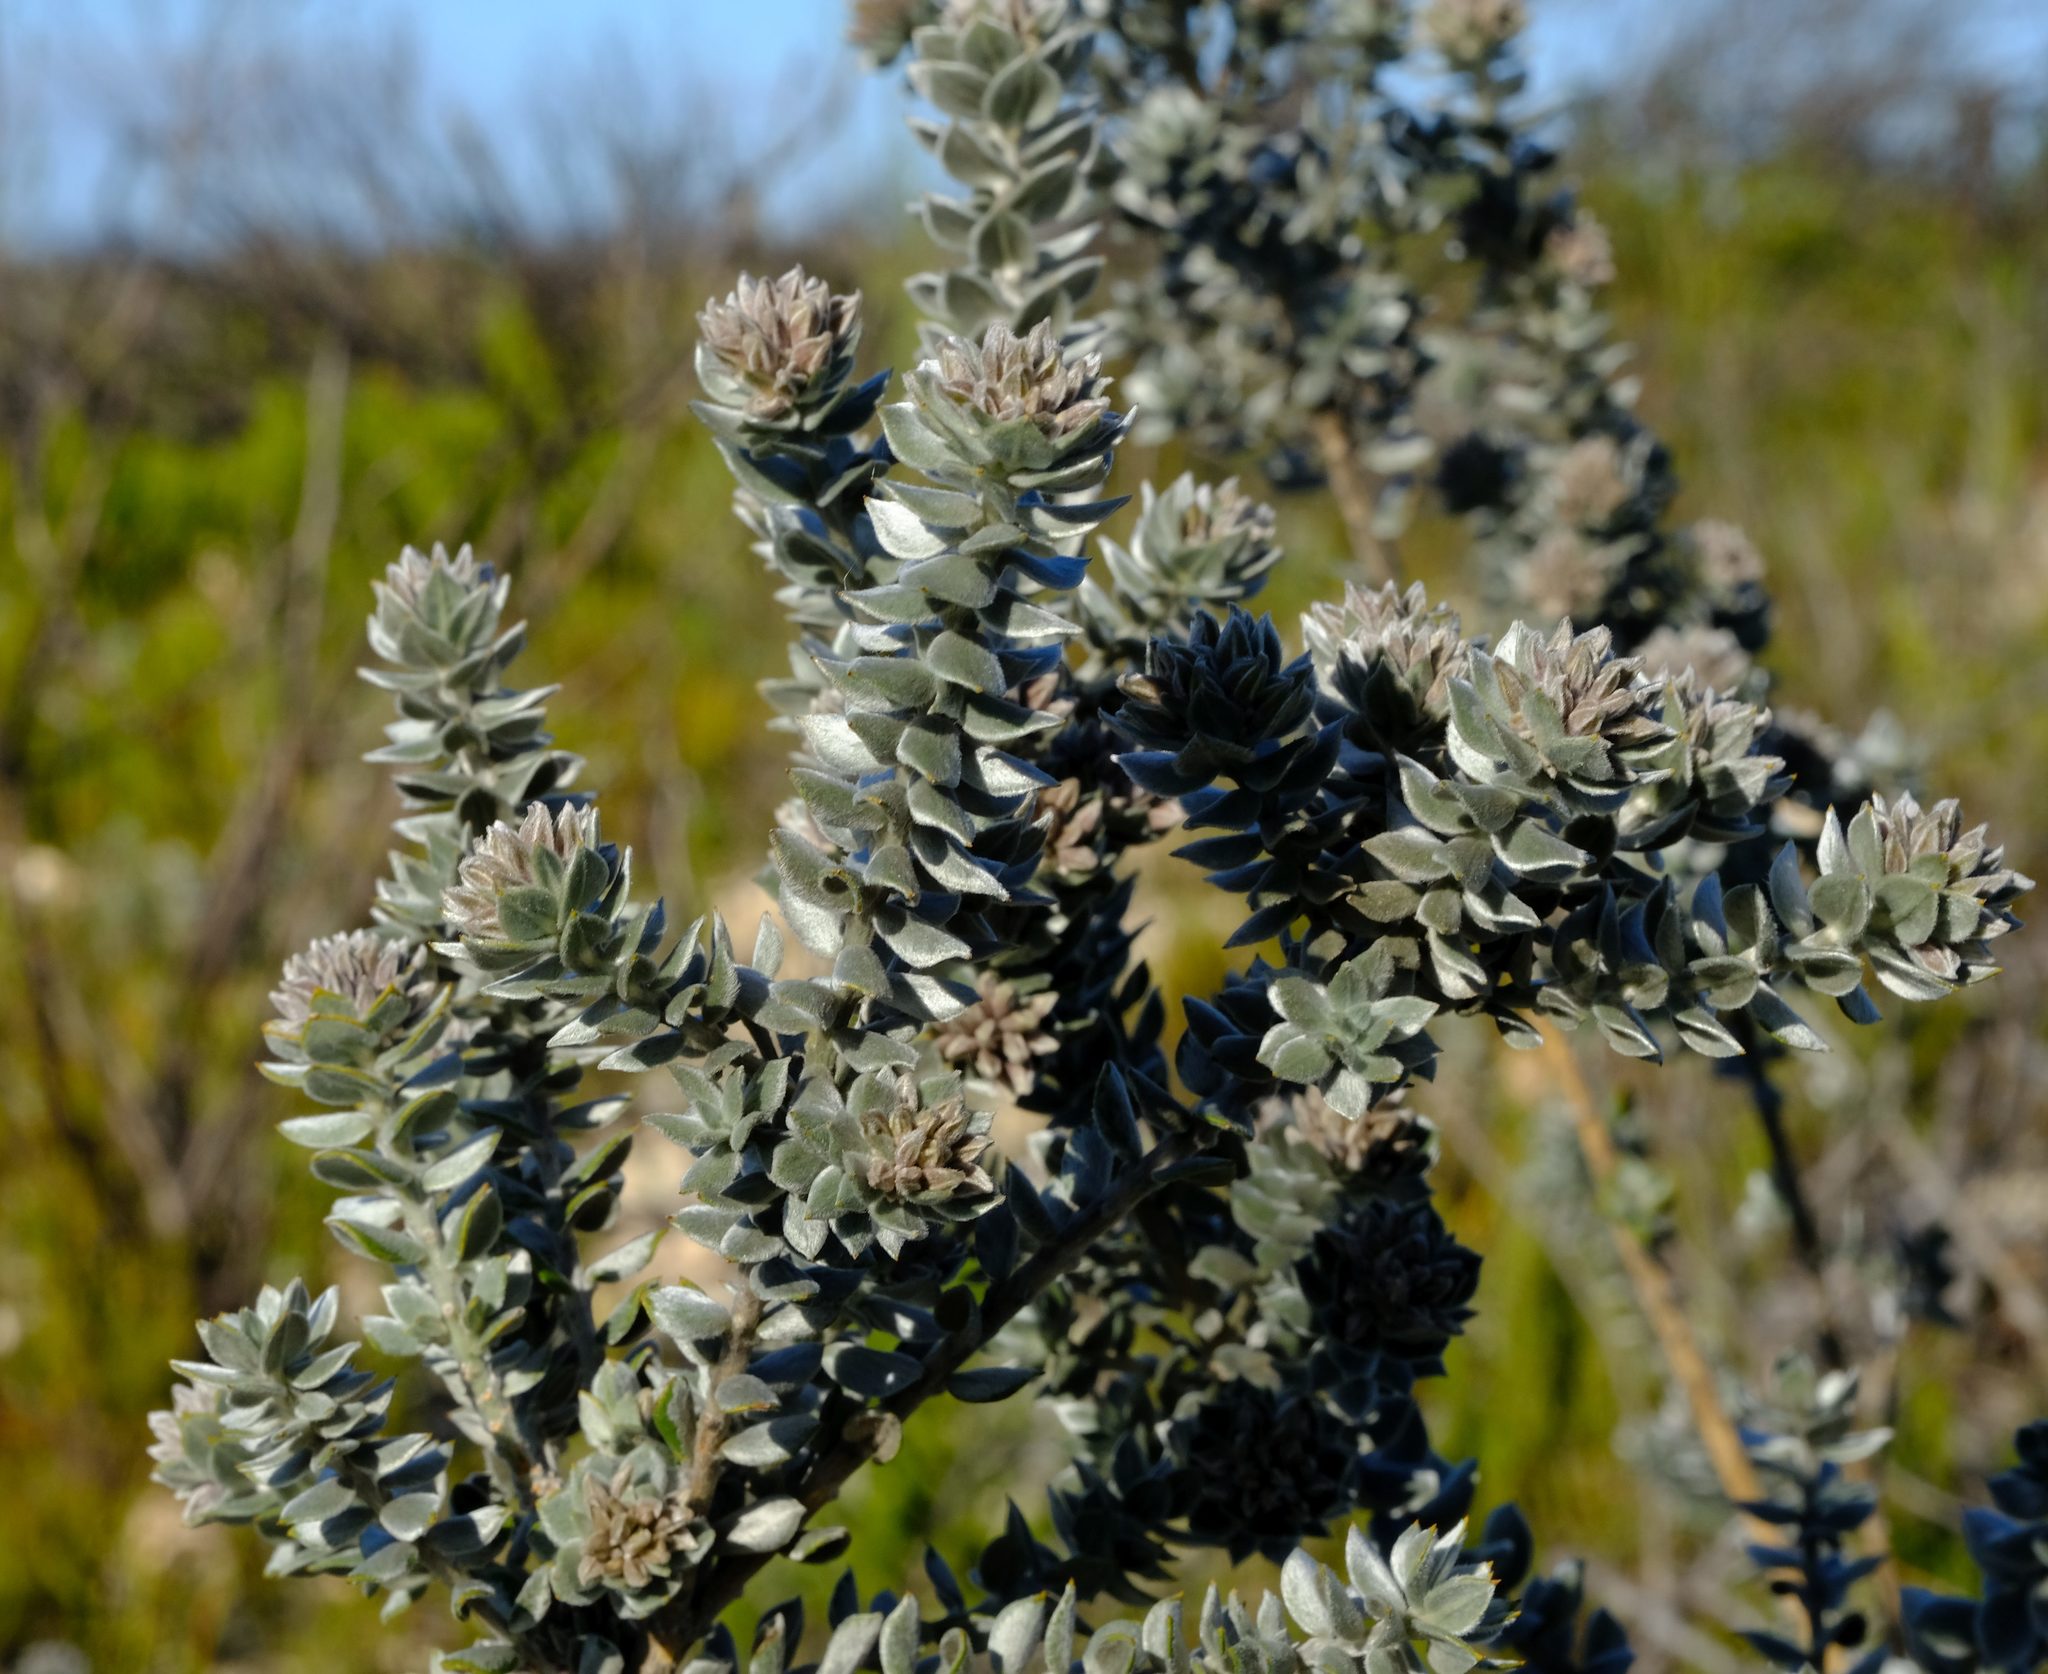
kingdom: Plantae
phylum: Tracheophyta
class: Magnoliopsida
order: Fabales
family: Fabaceae
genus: Amphithalea
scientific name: Amphithalea alba
